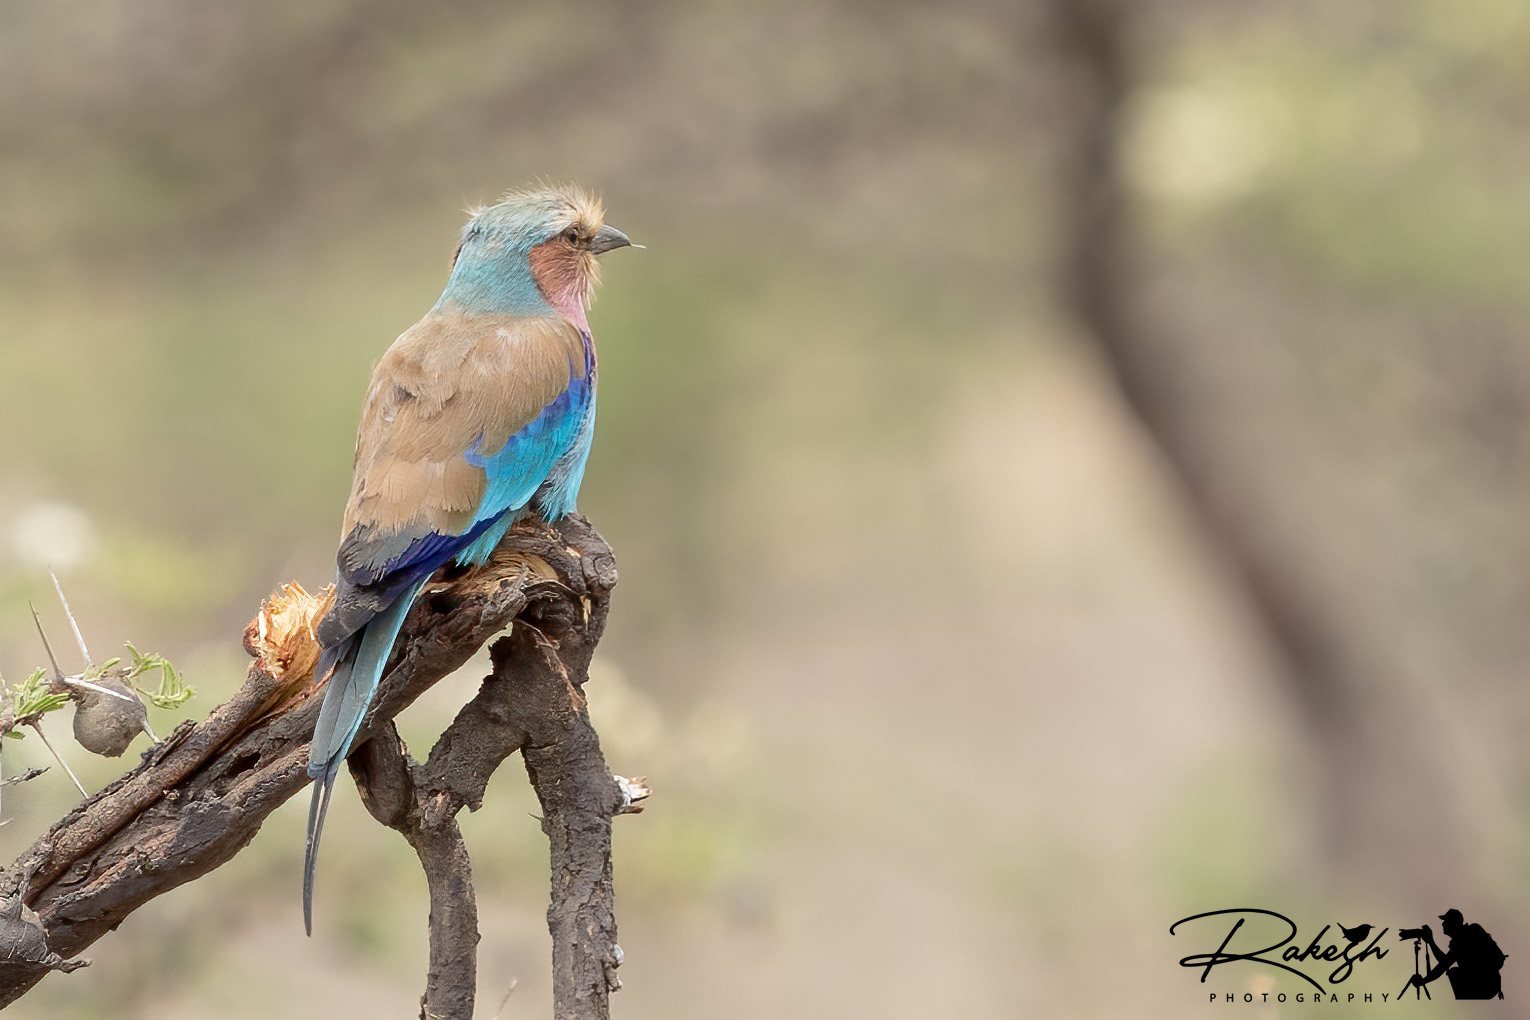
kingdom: Animalia
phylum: Chordata
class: Aves
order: Coraciiformes
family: Coraciidae
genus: Coracias
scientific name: Coracias caudatus
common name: Lilac-breasted roller
